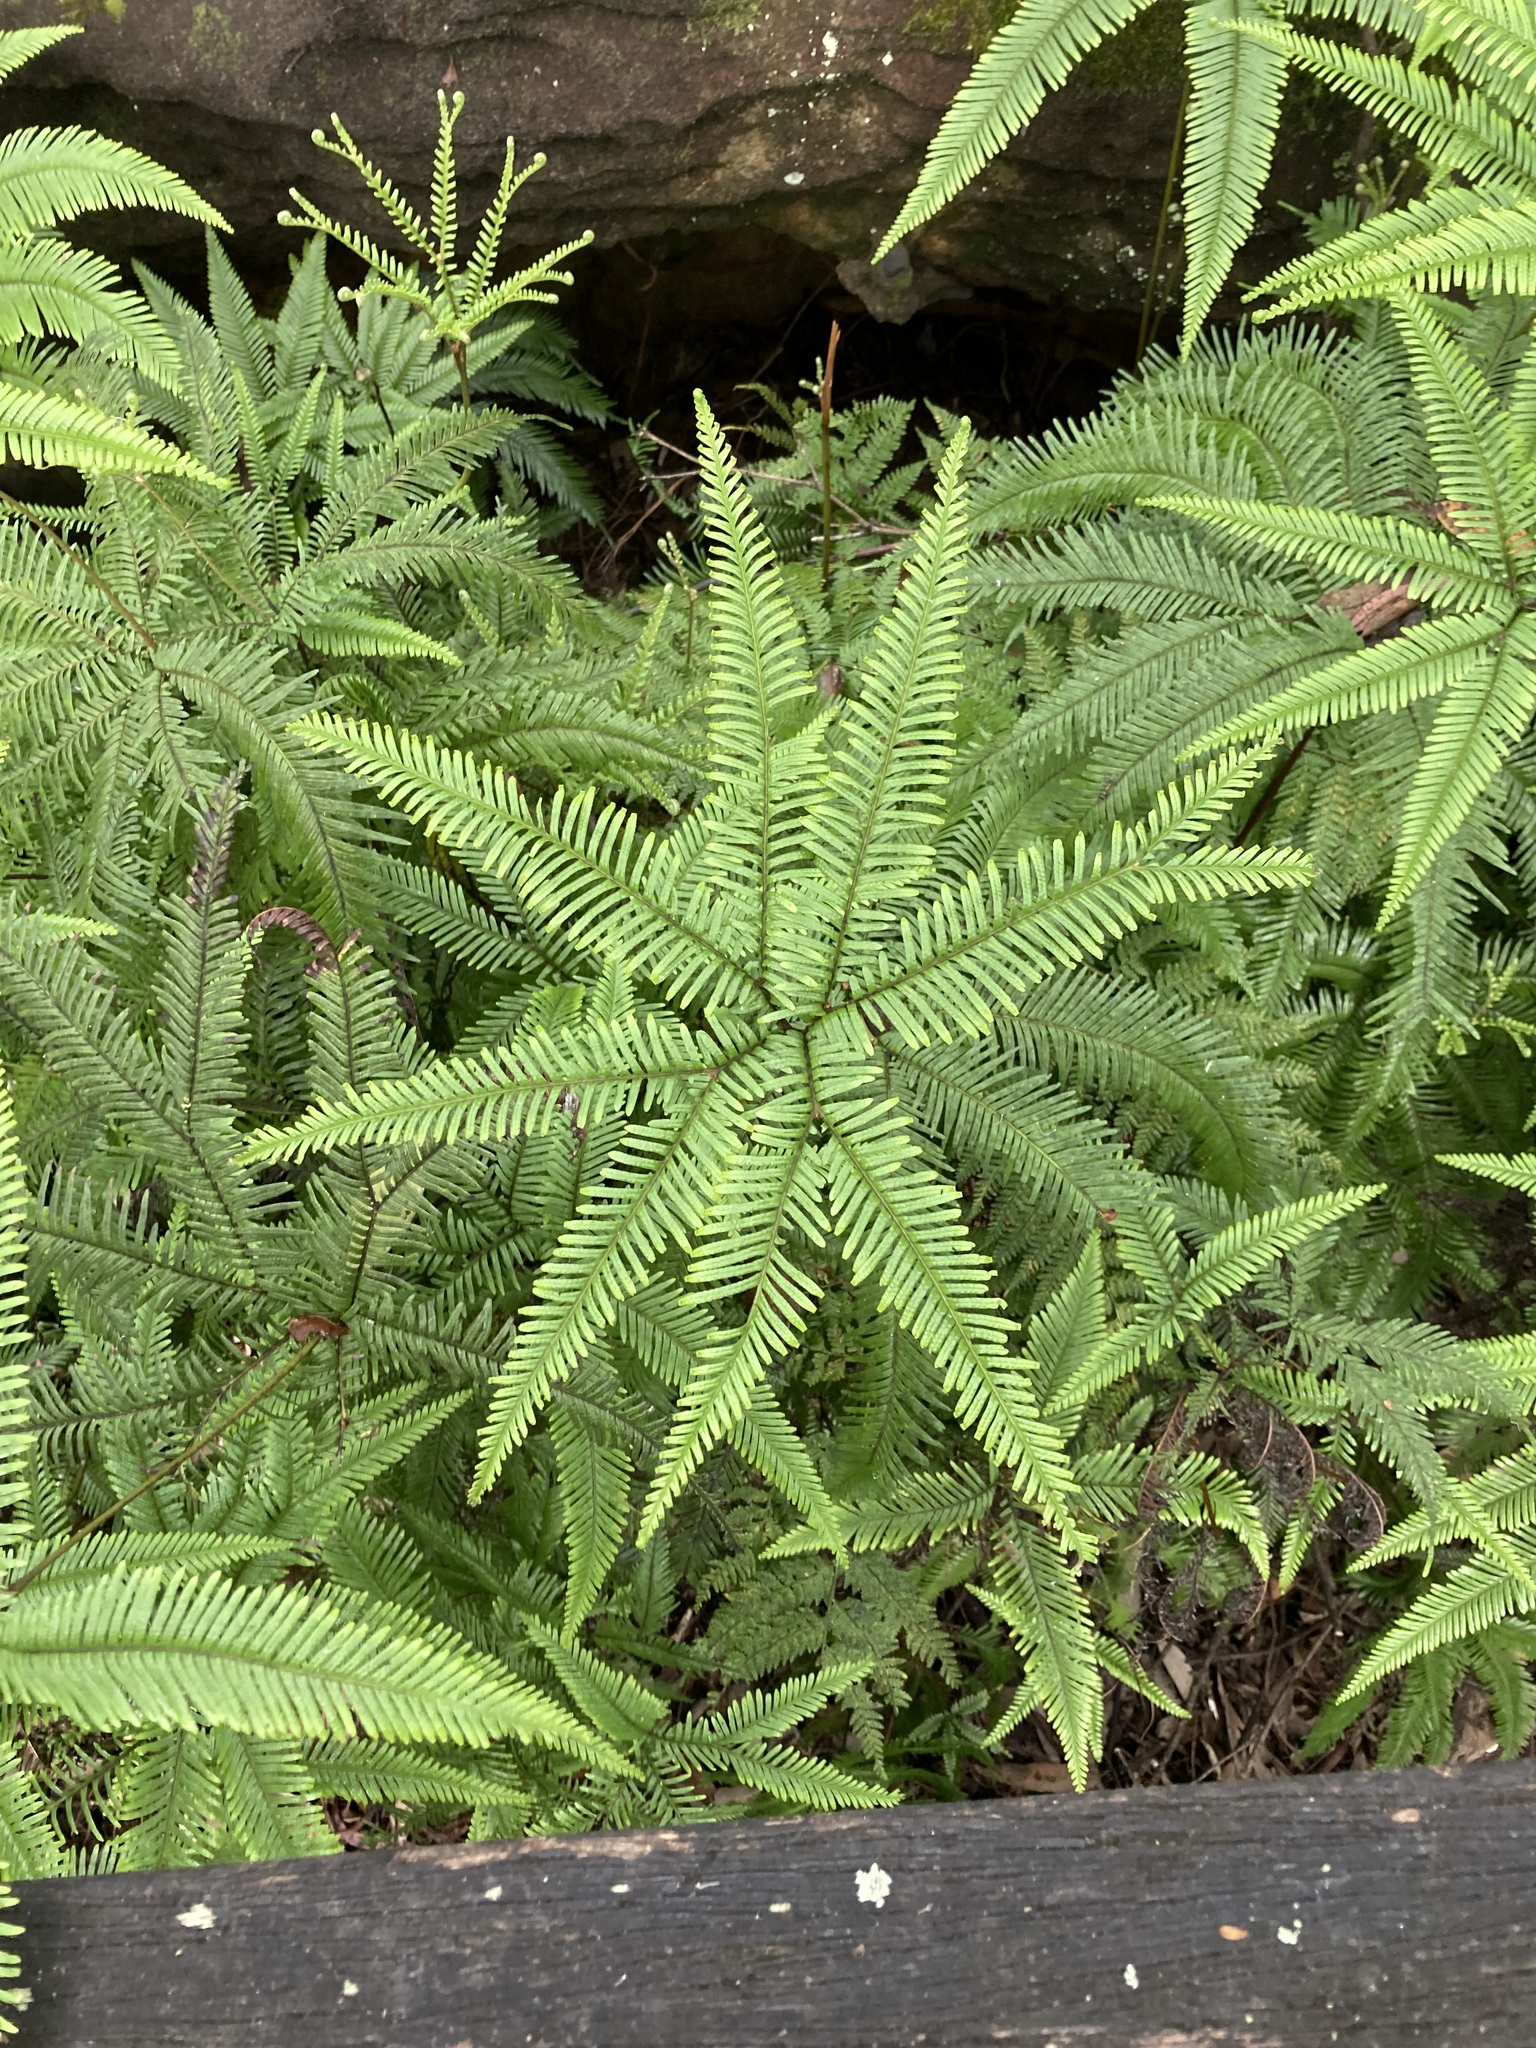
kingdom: Plantae
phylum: Tracheophyta
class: Polypodiopsida
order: Gleicheniales
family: Gleicheniaceae
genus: Sticherus
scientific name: Sticherus flabellatus
